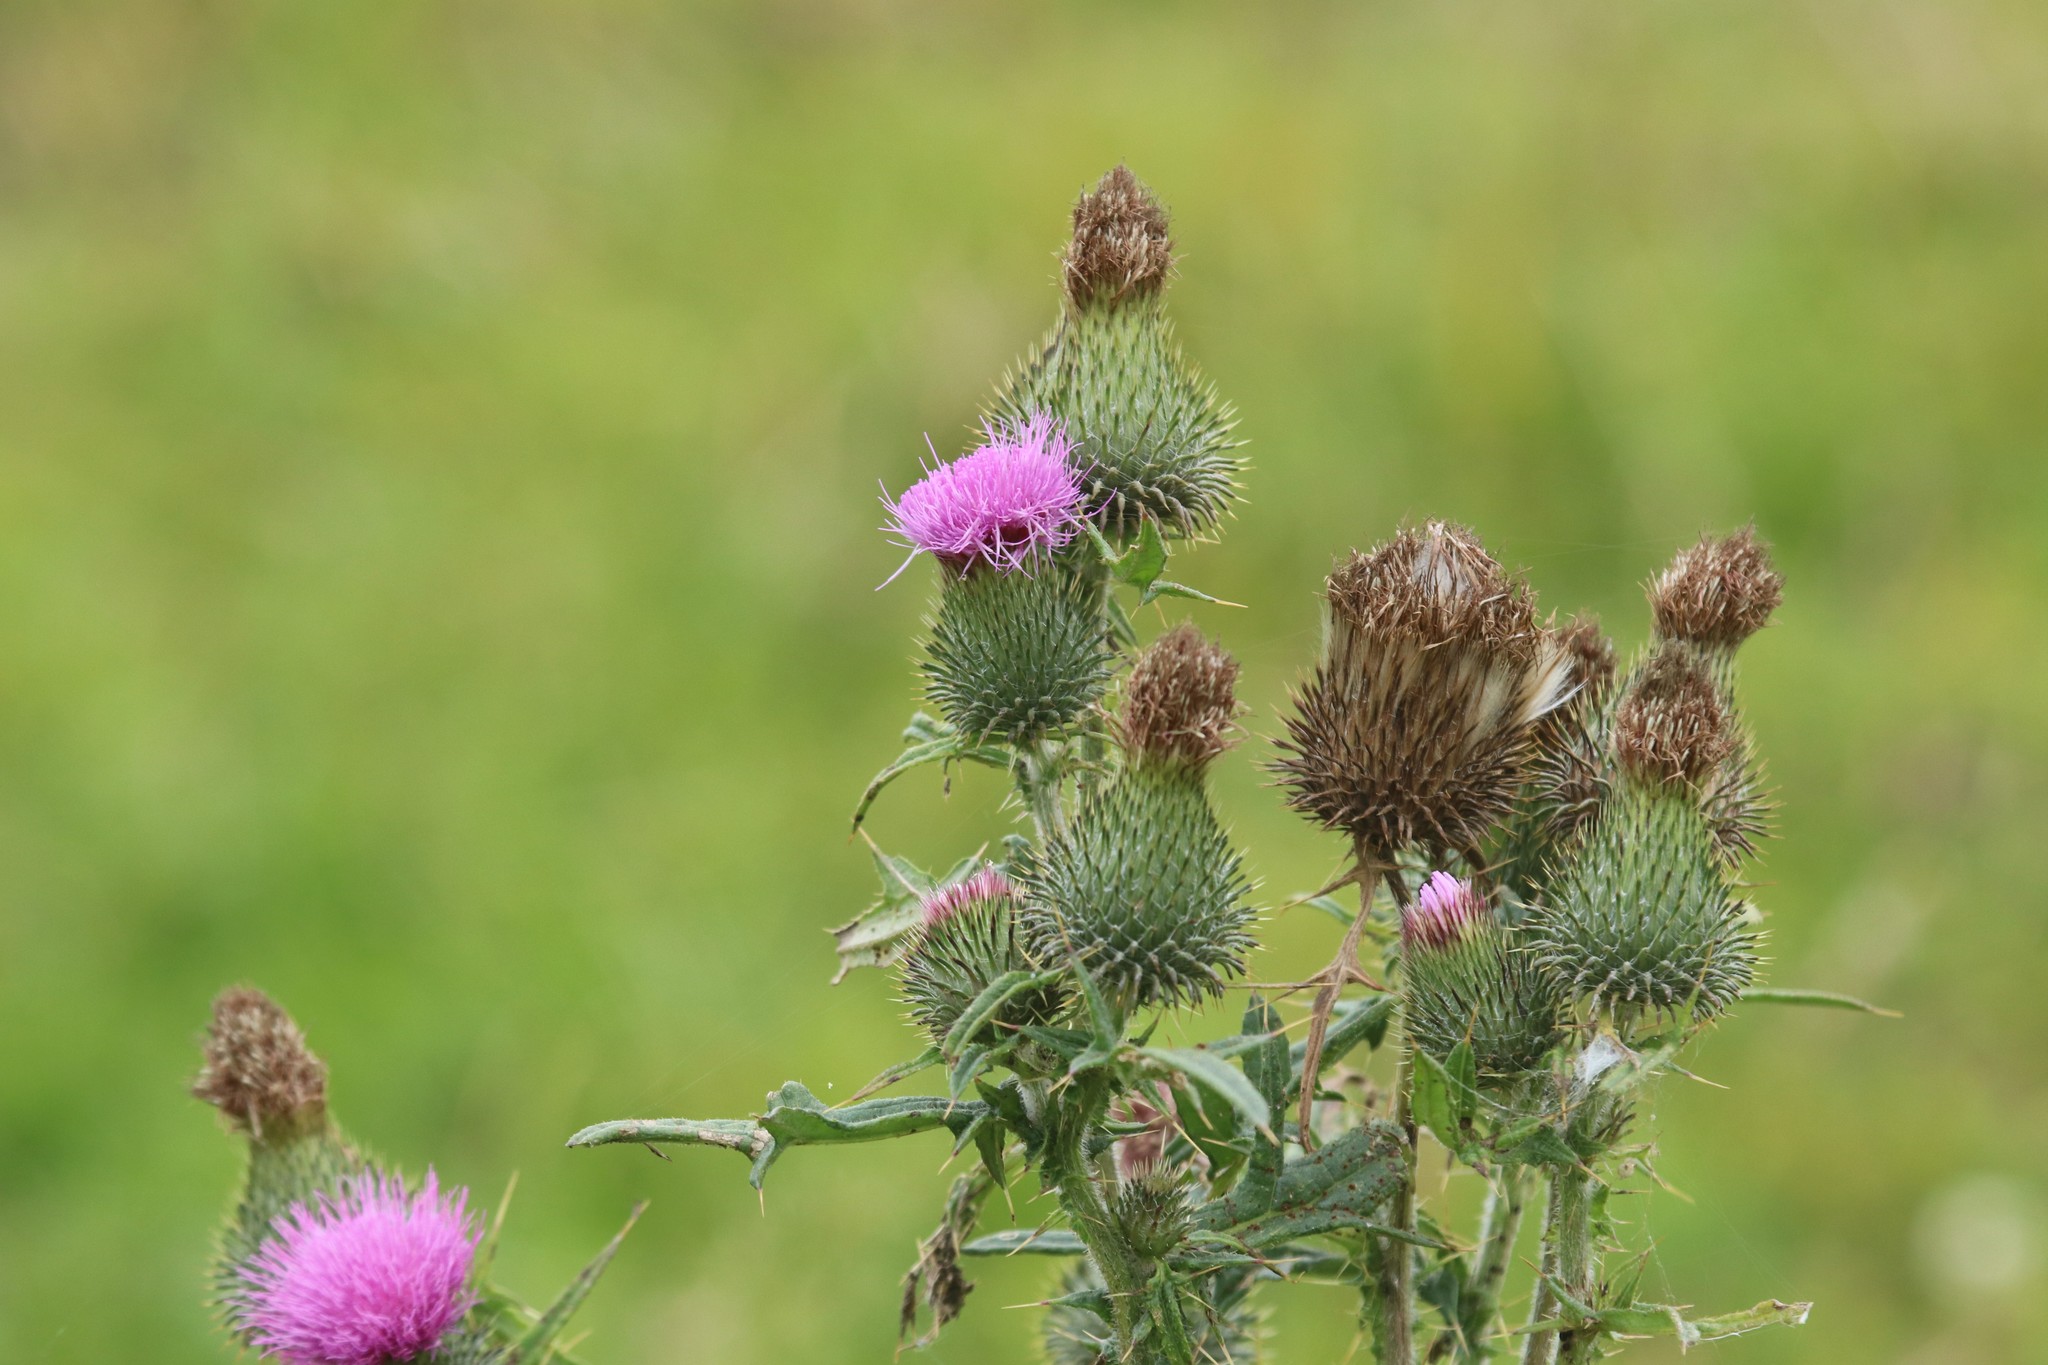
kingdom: Plantae
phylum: Tracheophyta
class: Magnoliopsida
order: Asterales
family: Asteraceae
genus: Cirsium
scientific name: Cirsium vulgare
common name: Bull thistle
